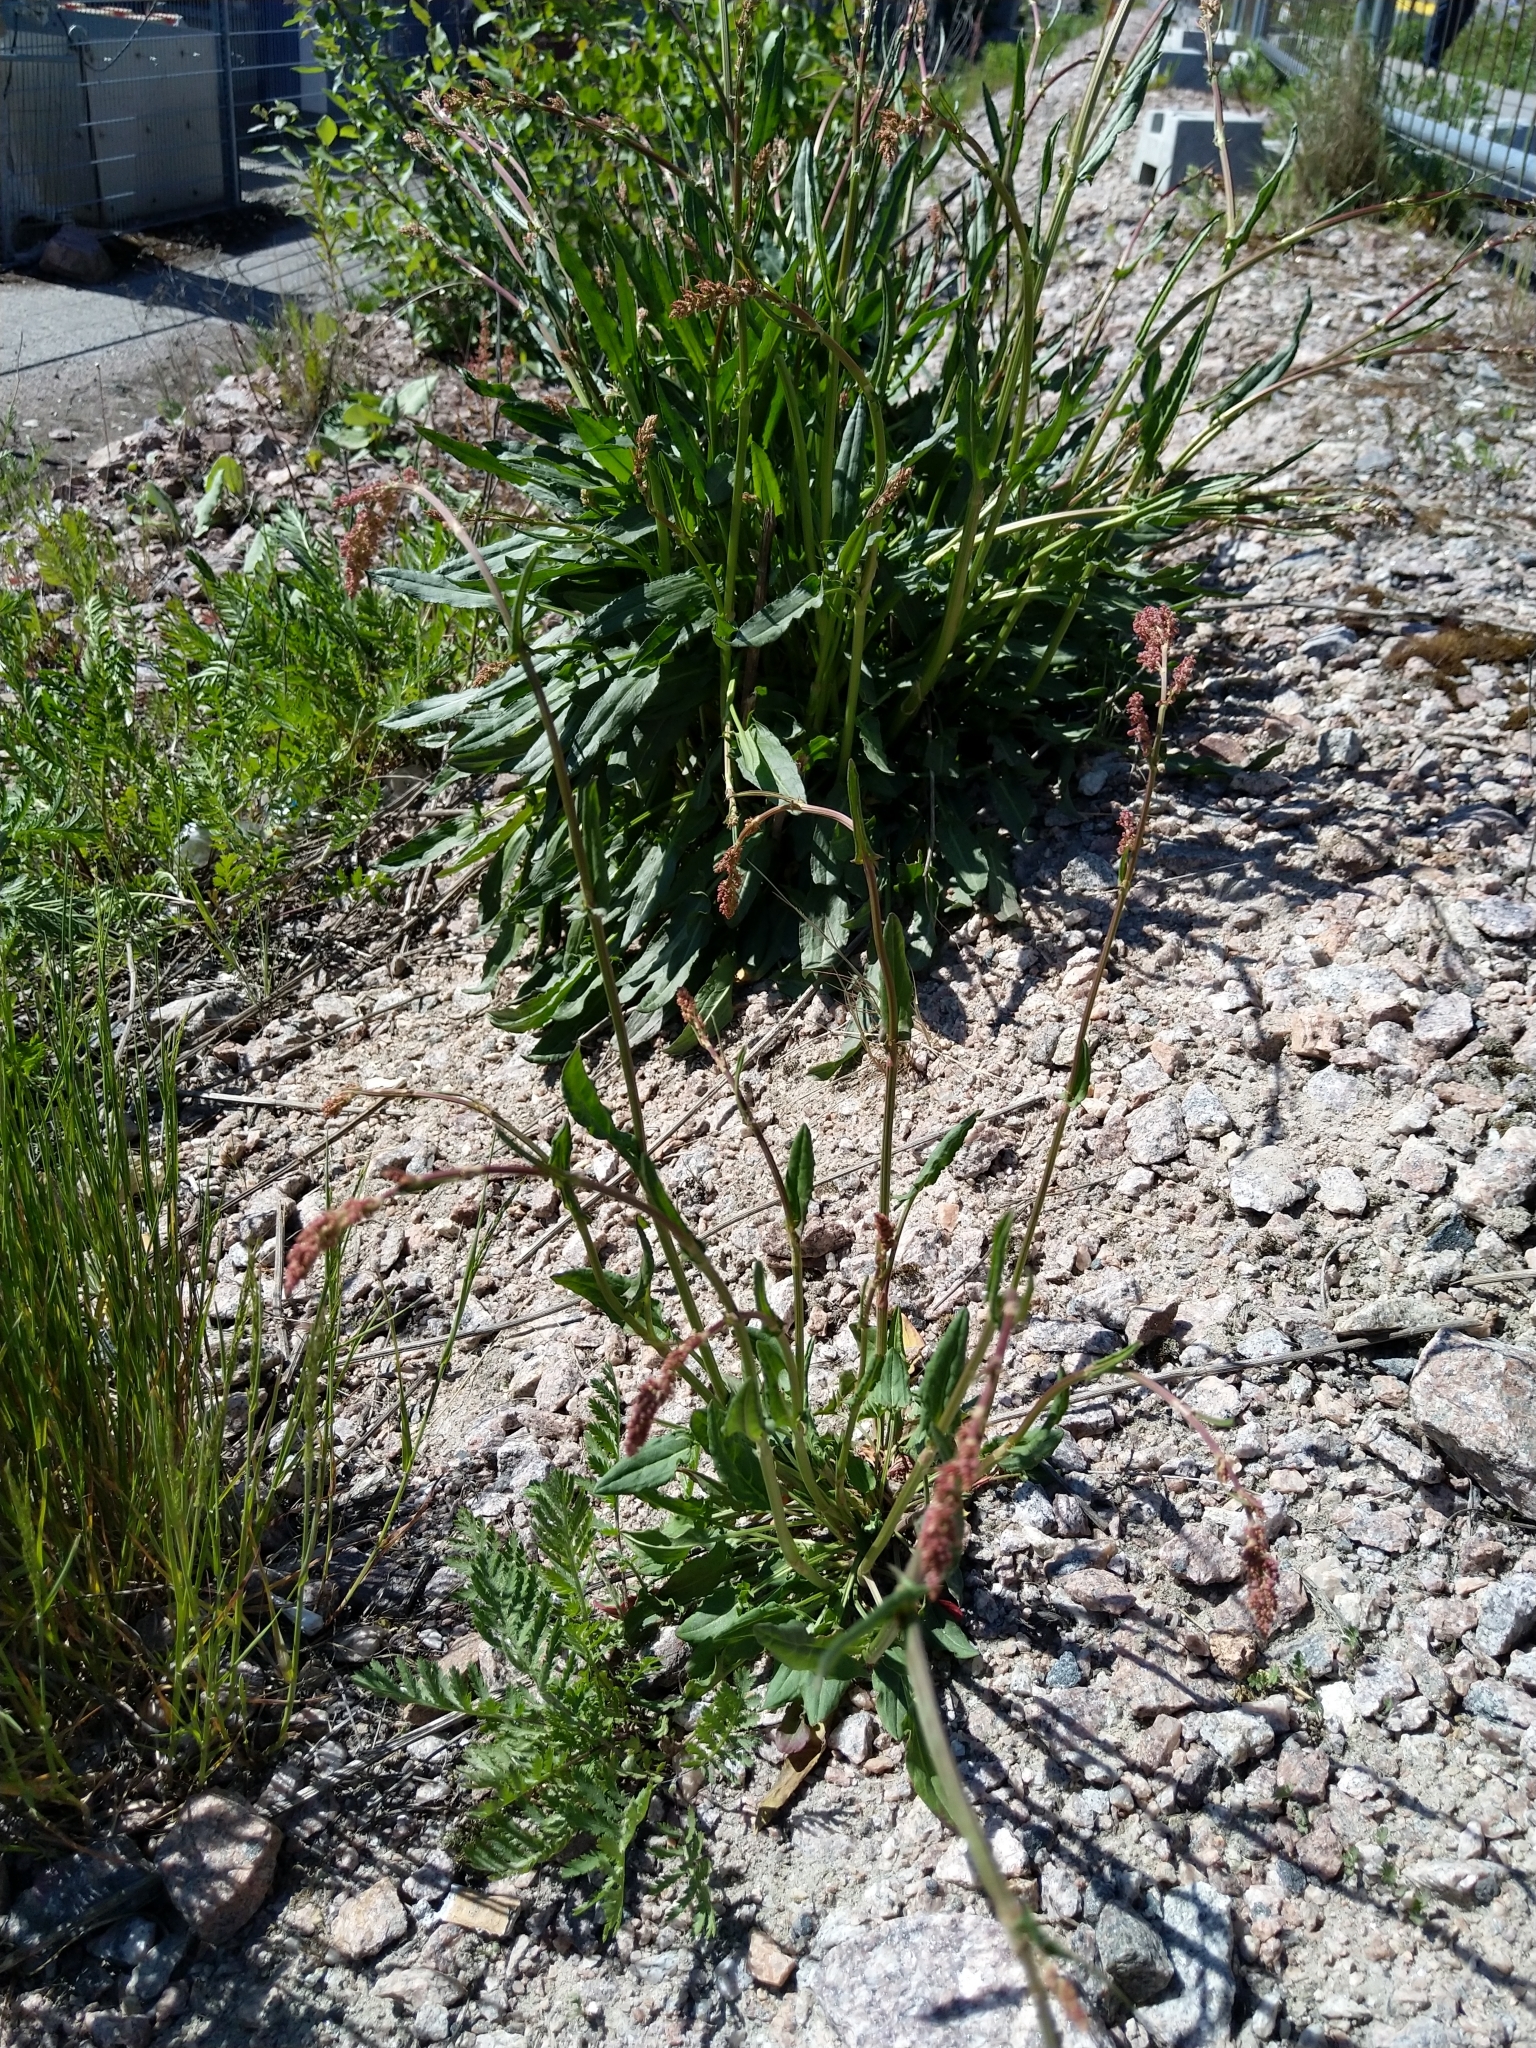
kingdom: Plantae
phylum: Tracheophyta
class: Magnoliopsida
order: Caryophyllales
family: Polygonaceae
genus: Rumex
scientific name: Rumex acetosa
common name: Garden sorrel
